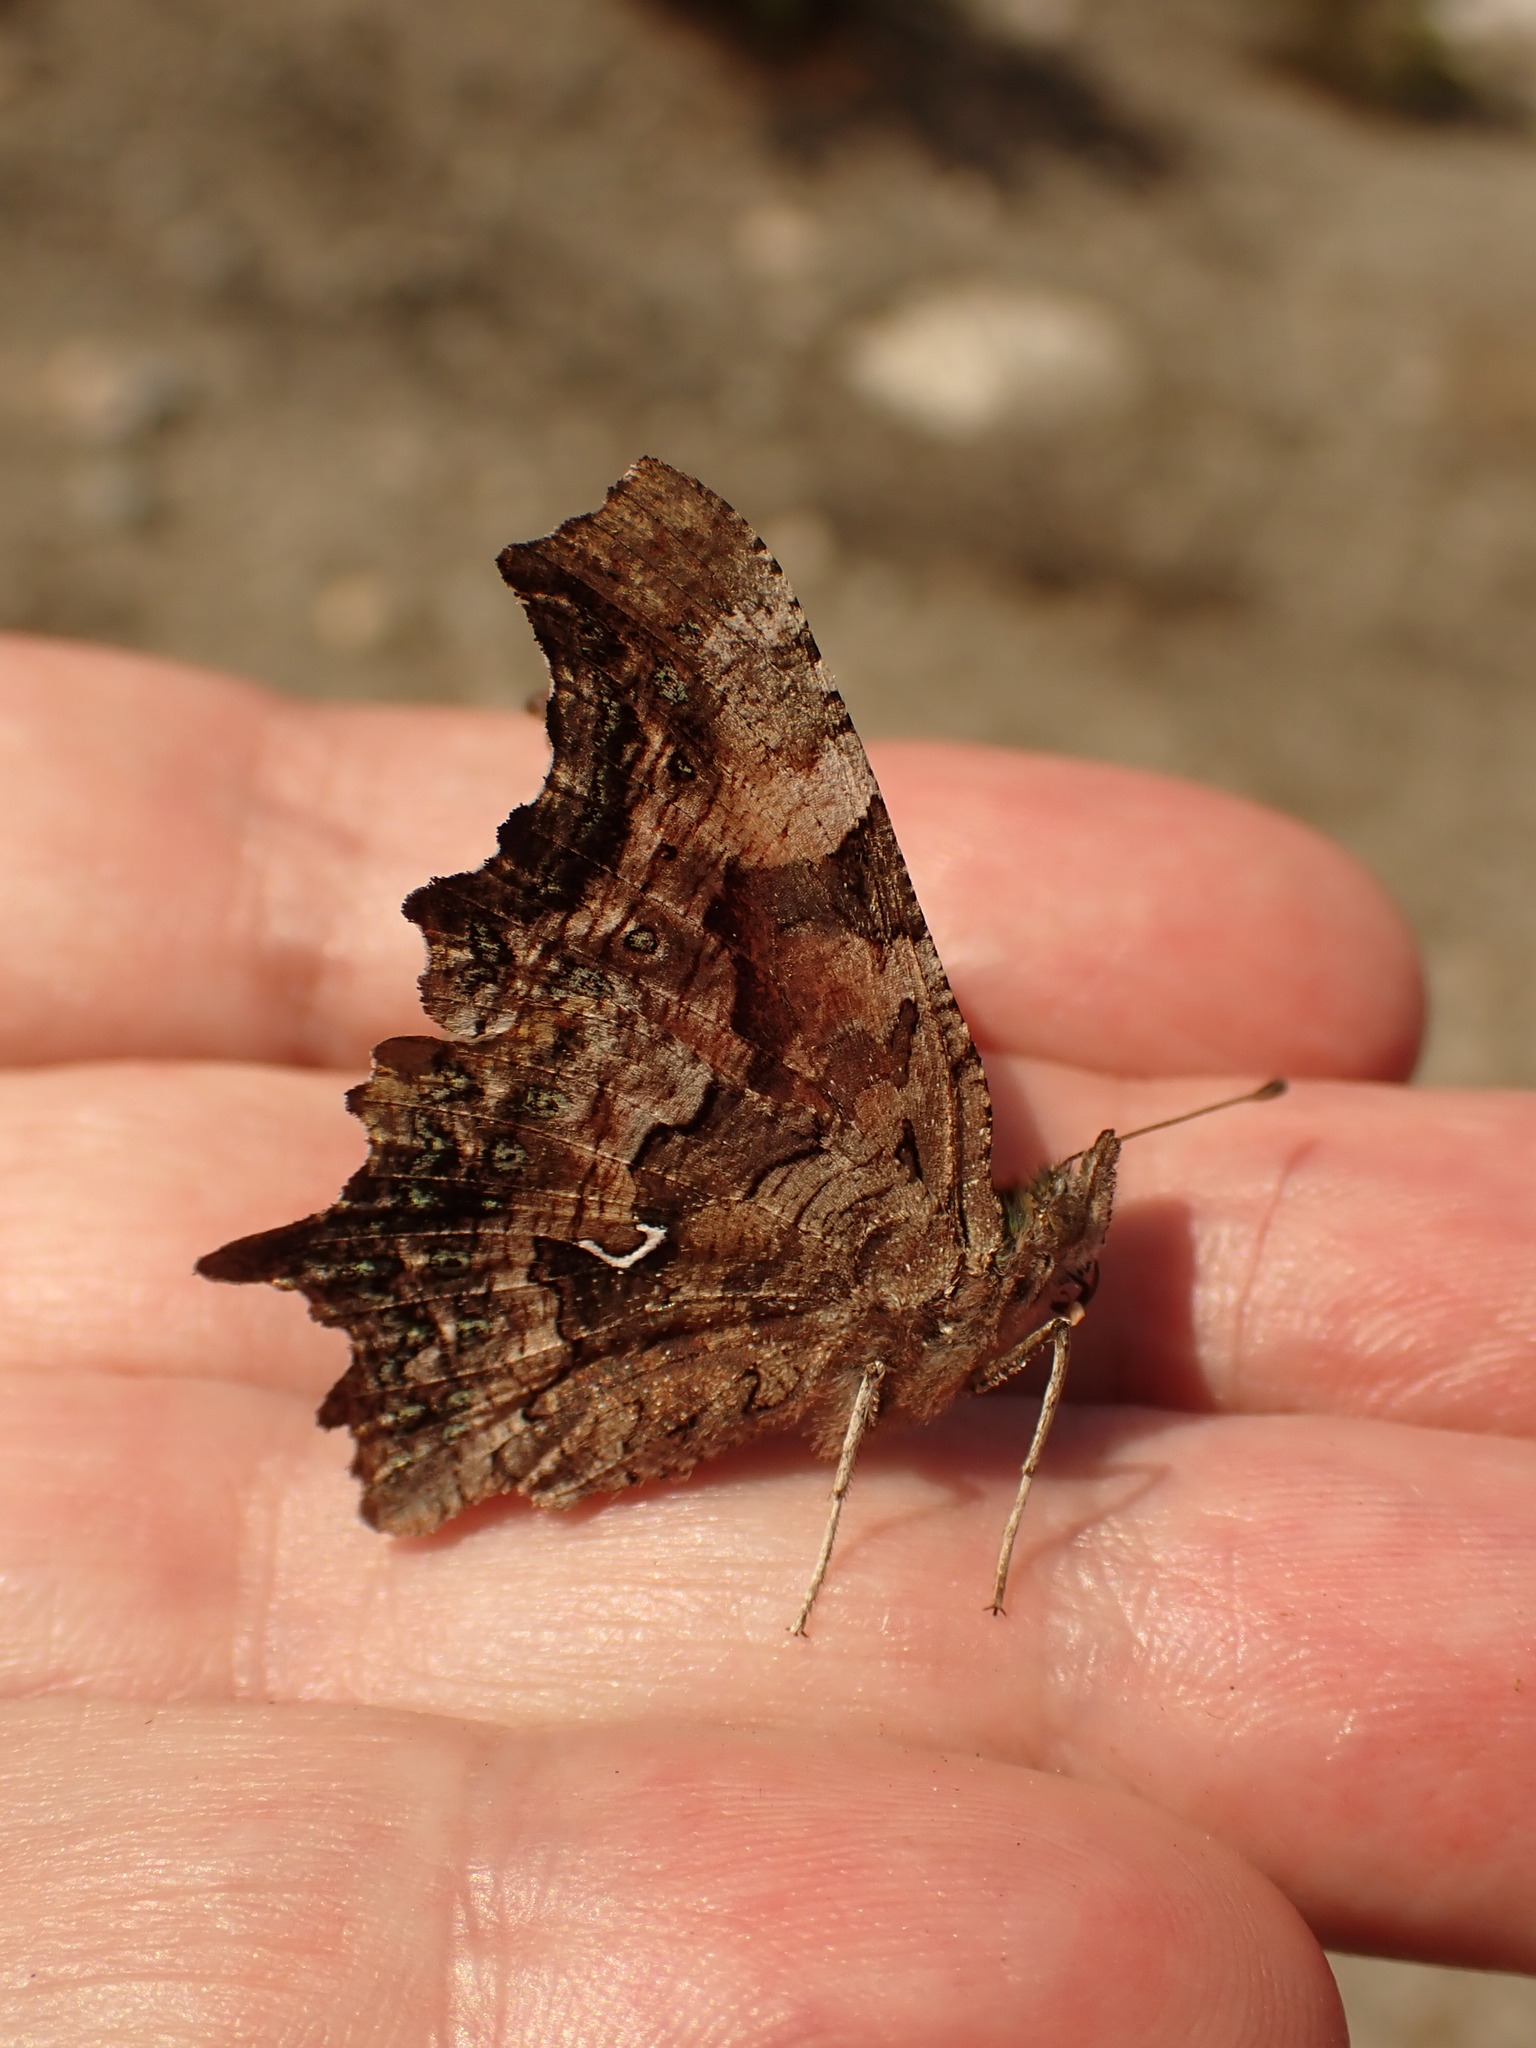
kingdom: Animalia
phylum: Arthropoda
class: Insecta
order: Lepidoptera
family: Nymphalidae
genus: Polygonia
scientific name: Polygonia faunus
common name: Green comma
